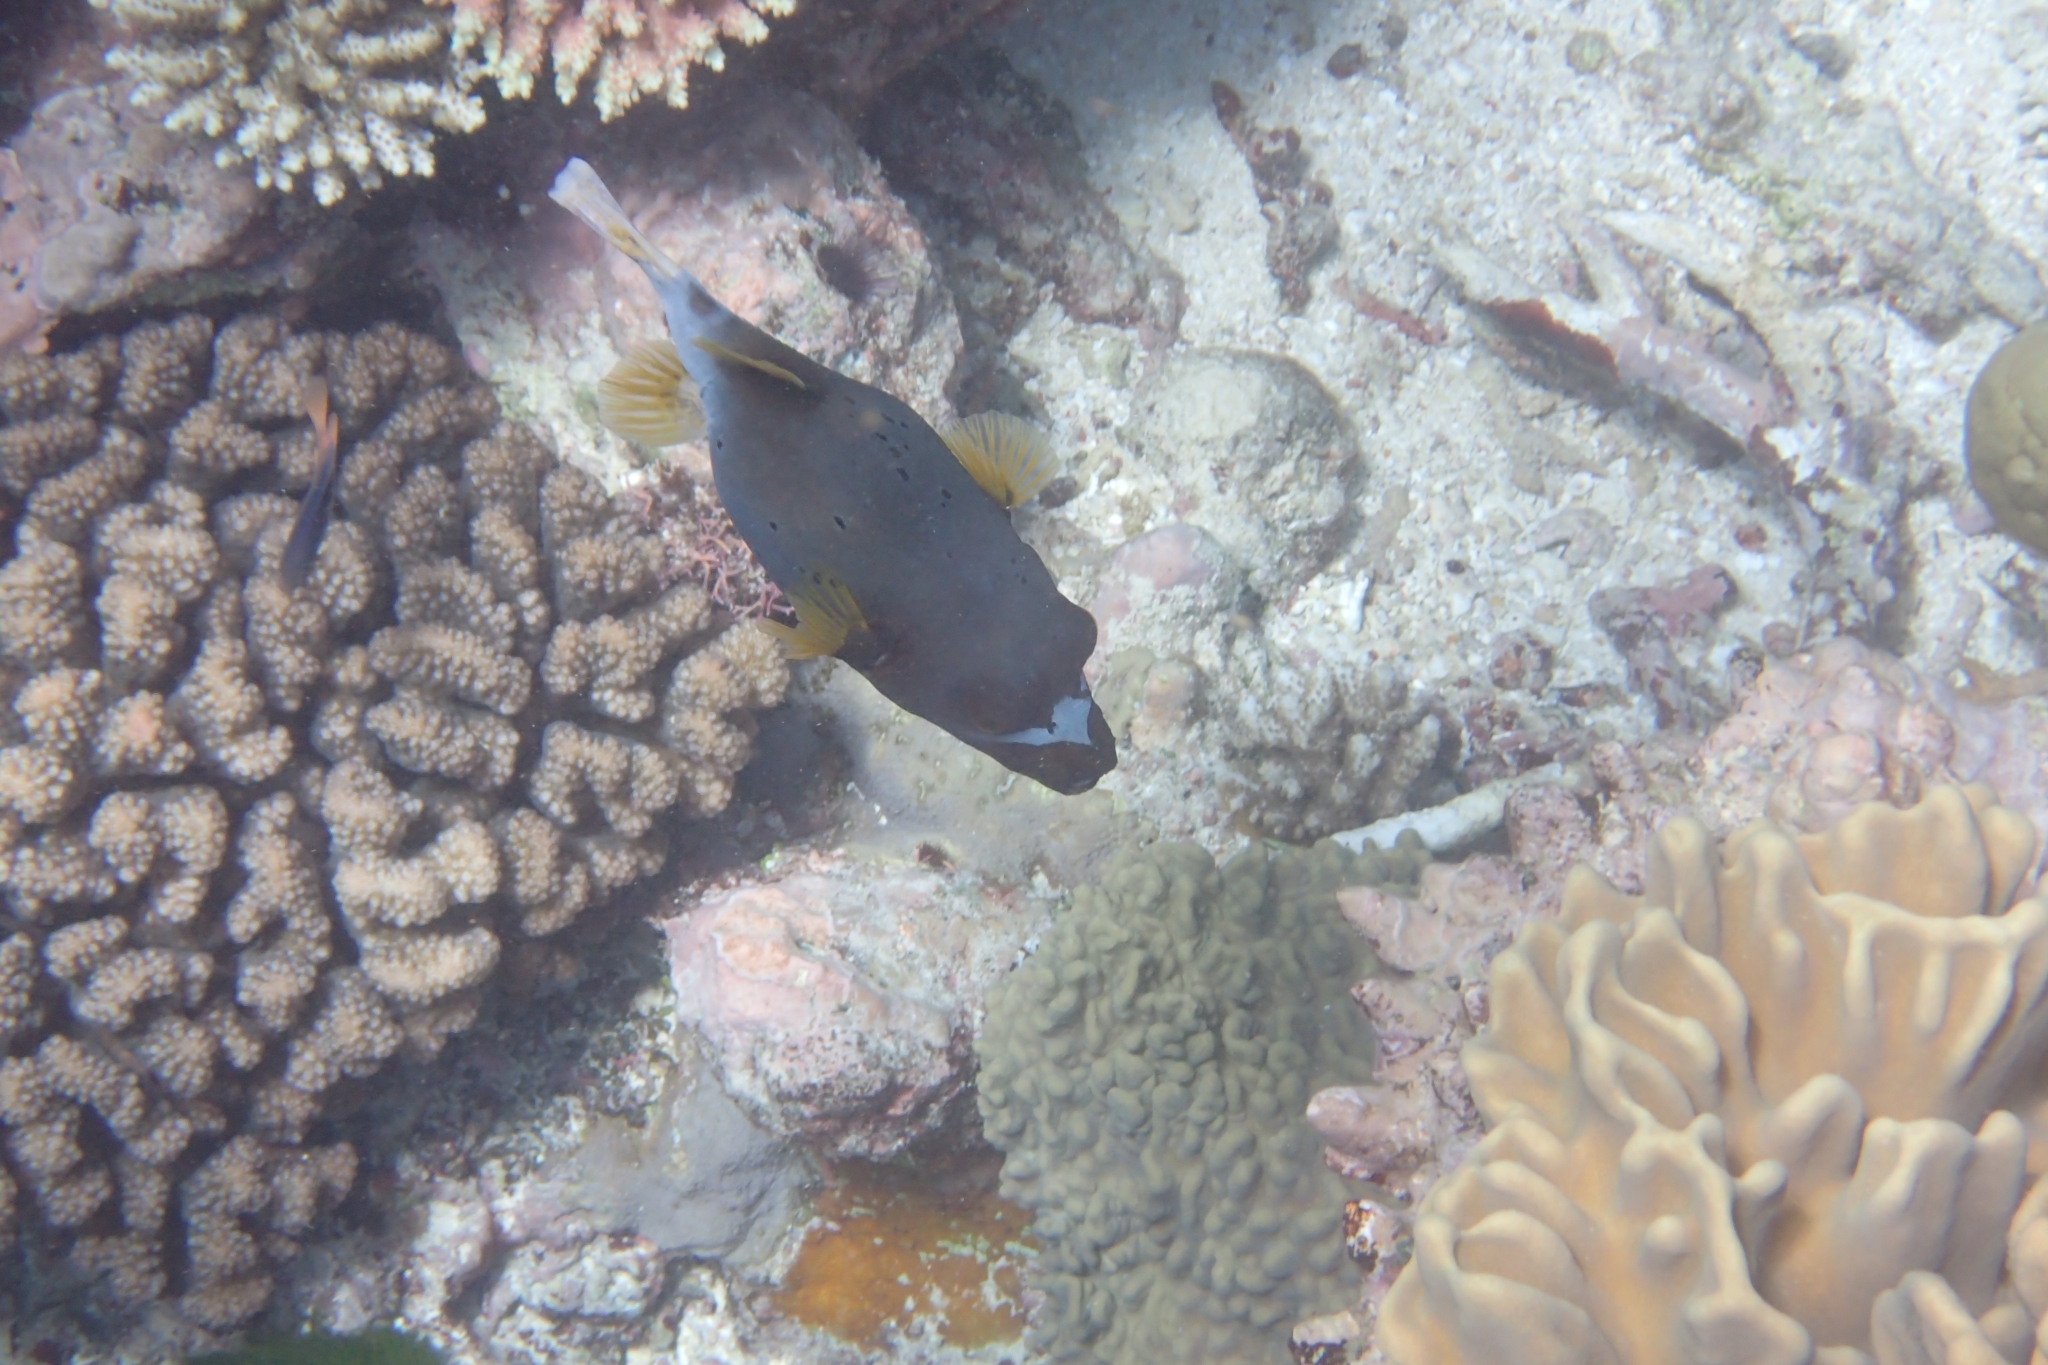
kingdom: Animalia
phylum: Chordata
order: Tetraodontiformes
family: Tetraodontidae
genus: Arothron
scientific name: Arothron nigropunctatus
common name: Black spotted blow fish
